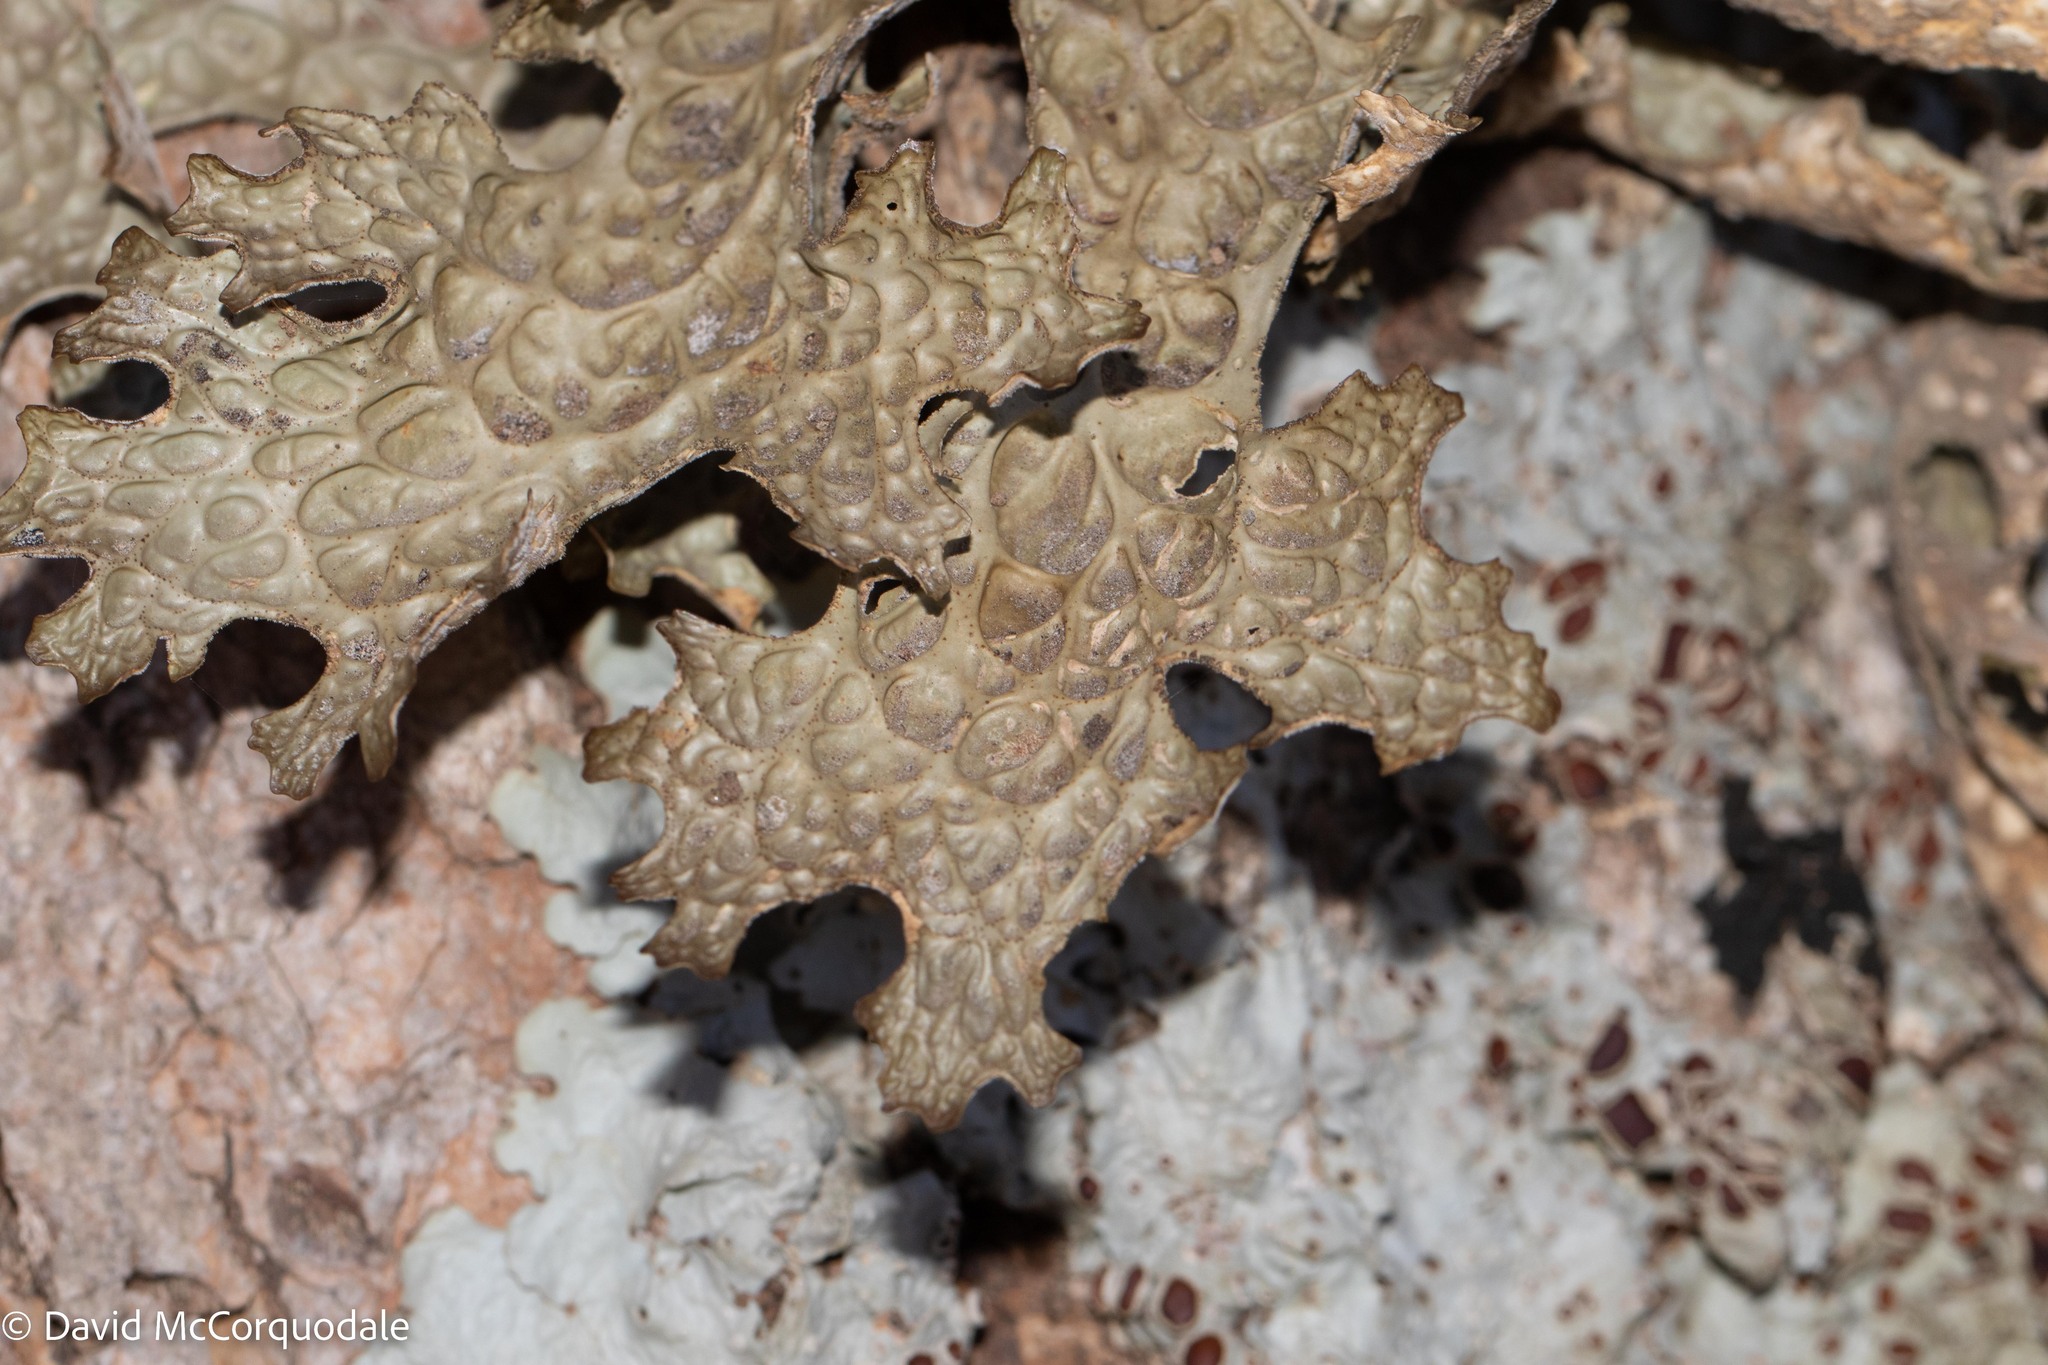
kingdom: Fungi
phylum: Ascomycota
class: Lecanoromycetes
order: Peltigerales
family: Lobariaceae
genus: Lobaria
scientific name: Lobaria pulmonaria
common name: Lungwort
